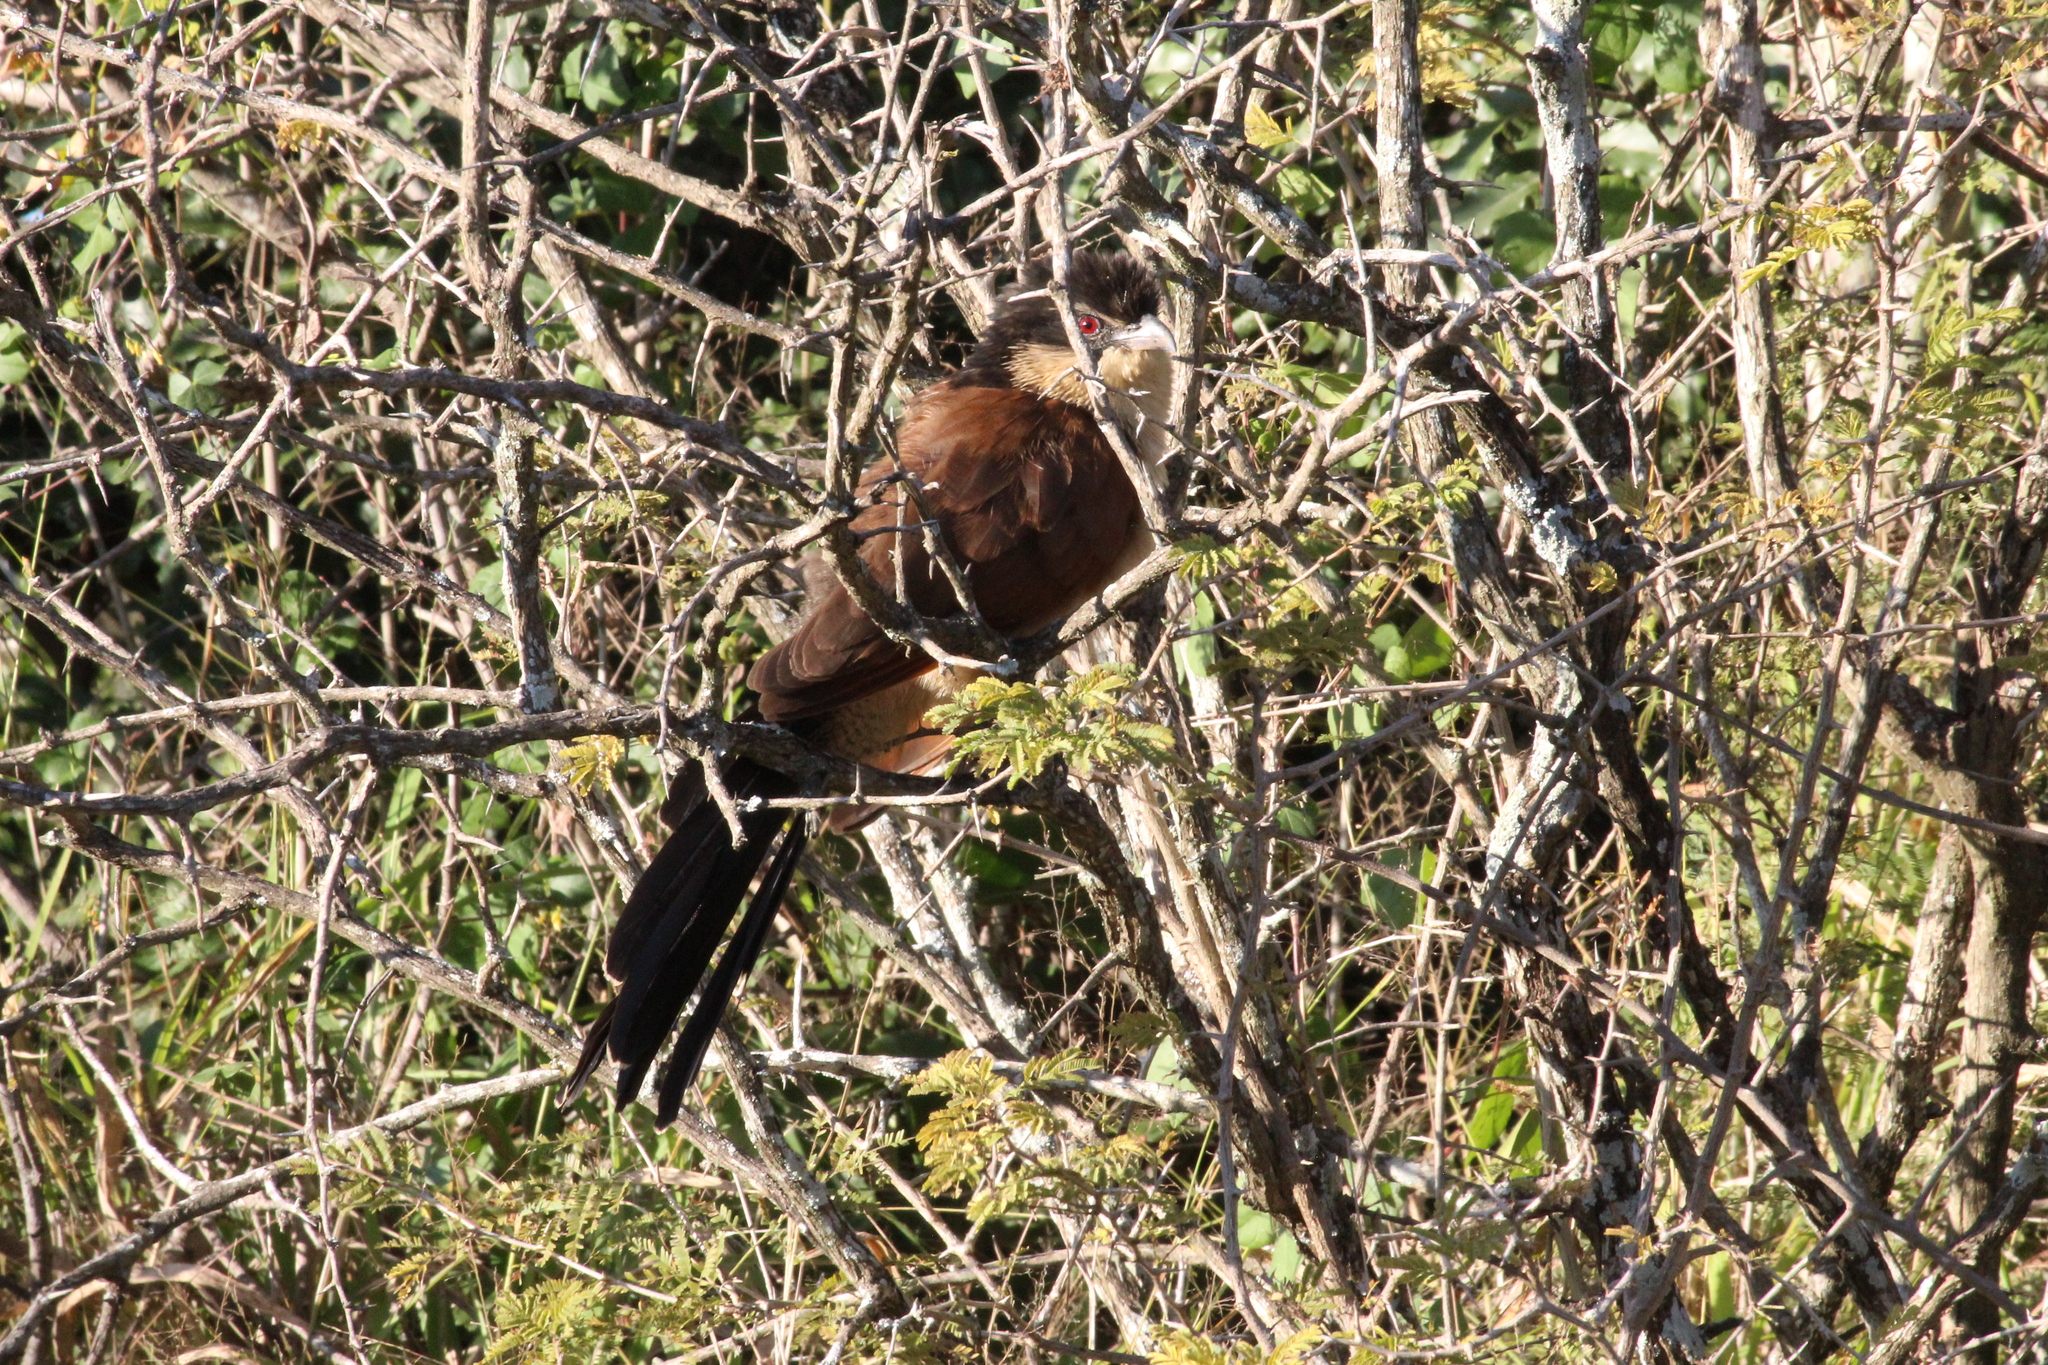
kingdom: Animalia
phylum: Chordata
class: Aves
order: Cuculiformes
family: Cuculidae
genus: Centropus
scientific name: Centropus superciliosus
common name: White-browed coucal
